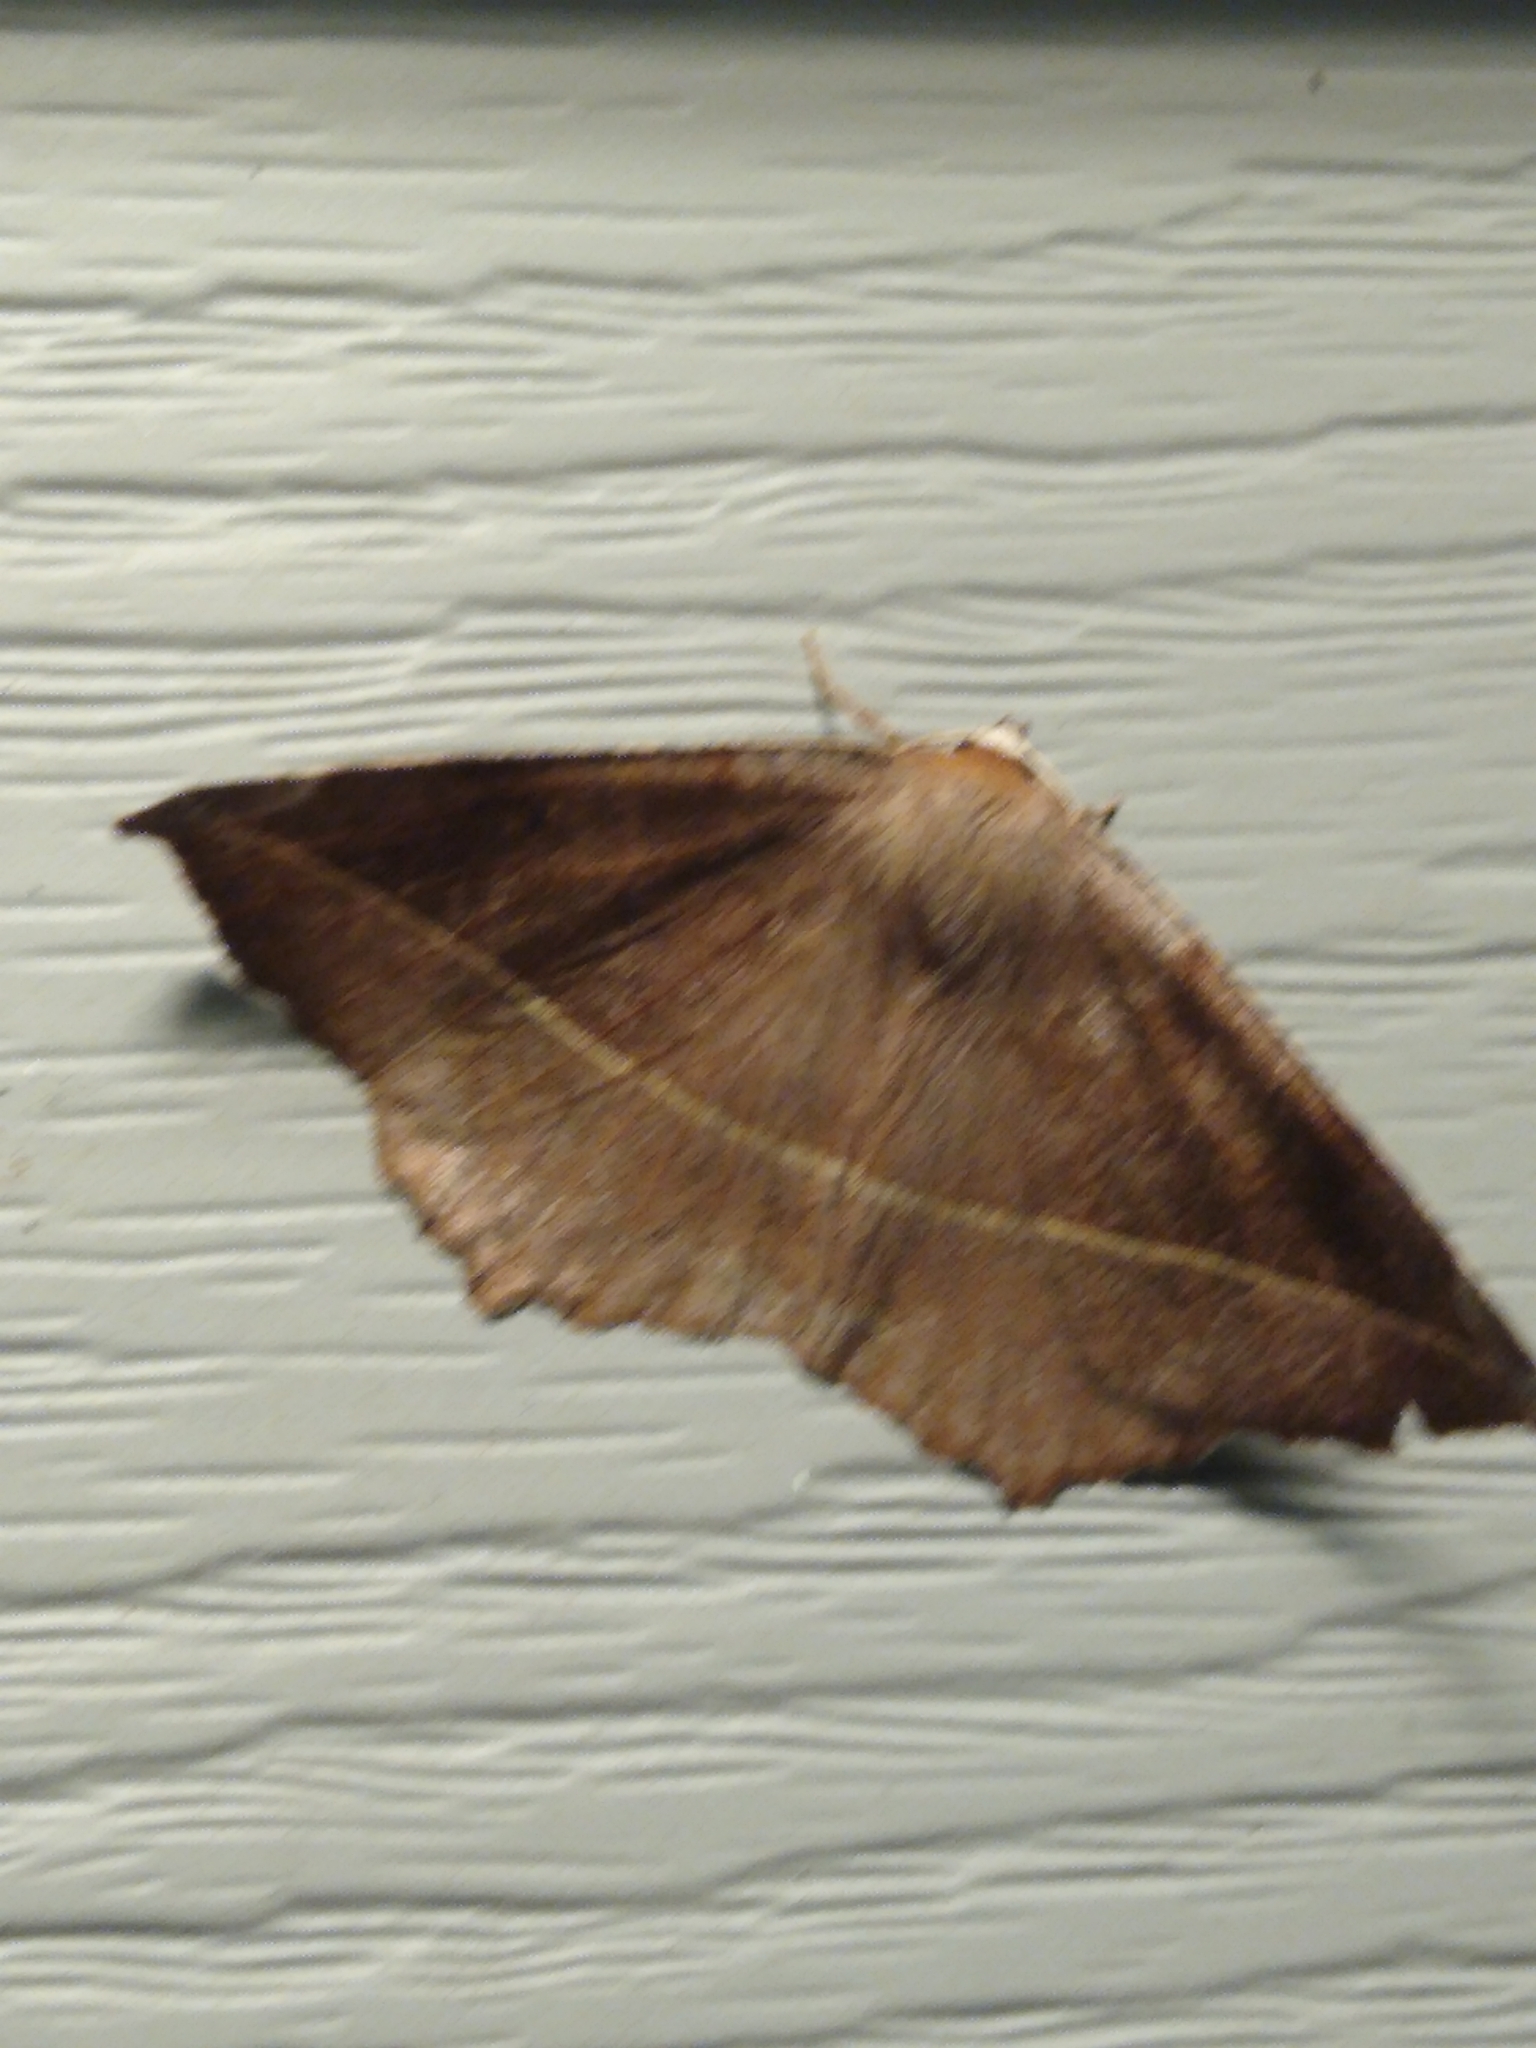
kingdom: Animalia
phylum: Arthropoda
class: Insecta
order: Lepidoptera
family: Geometridae
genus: Eutrapela
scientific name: Eutrapela clemataria
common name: Curved-toothed geometer
